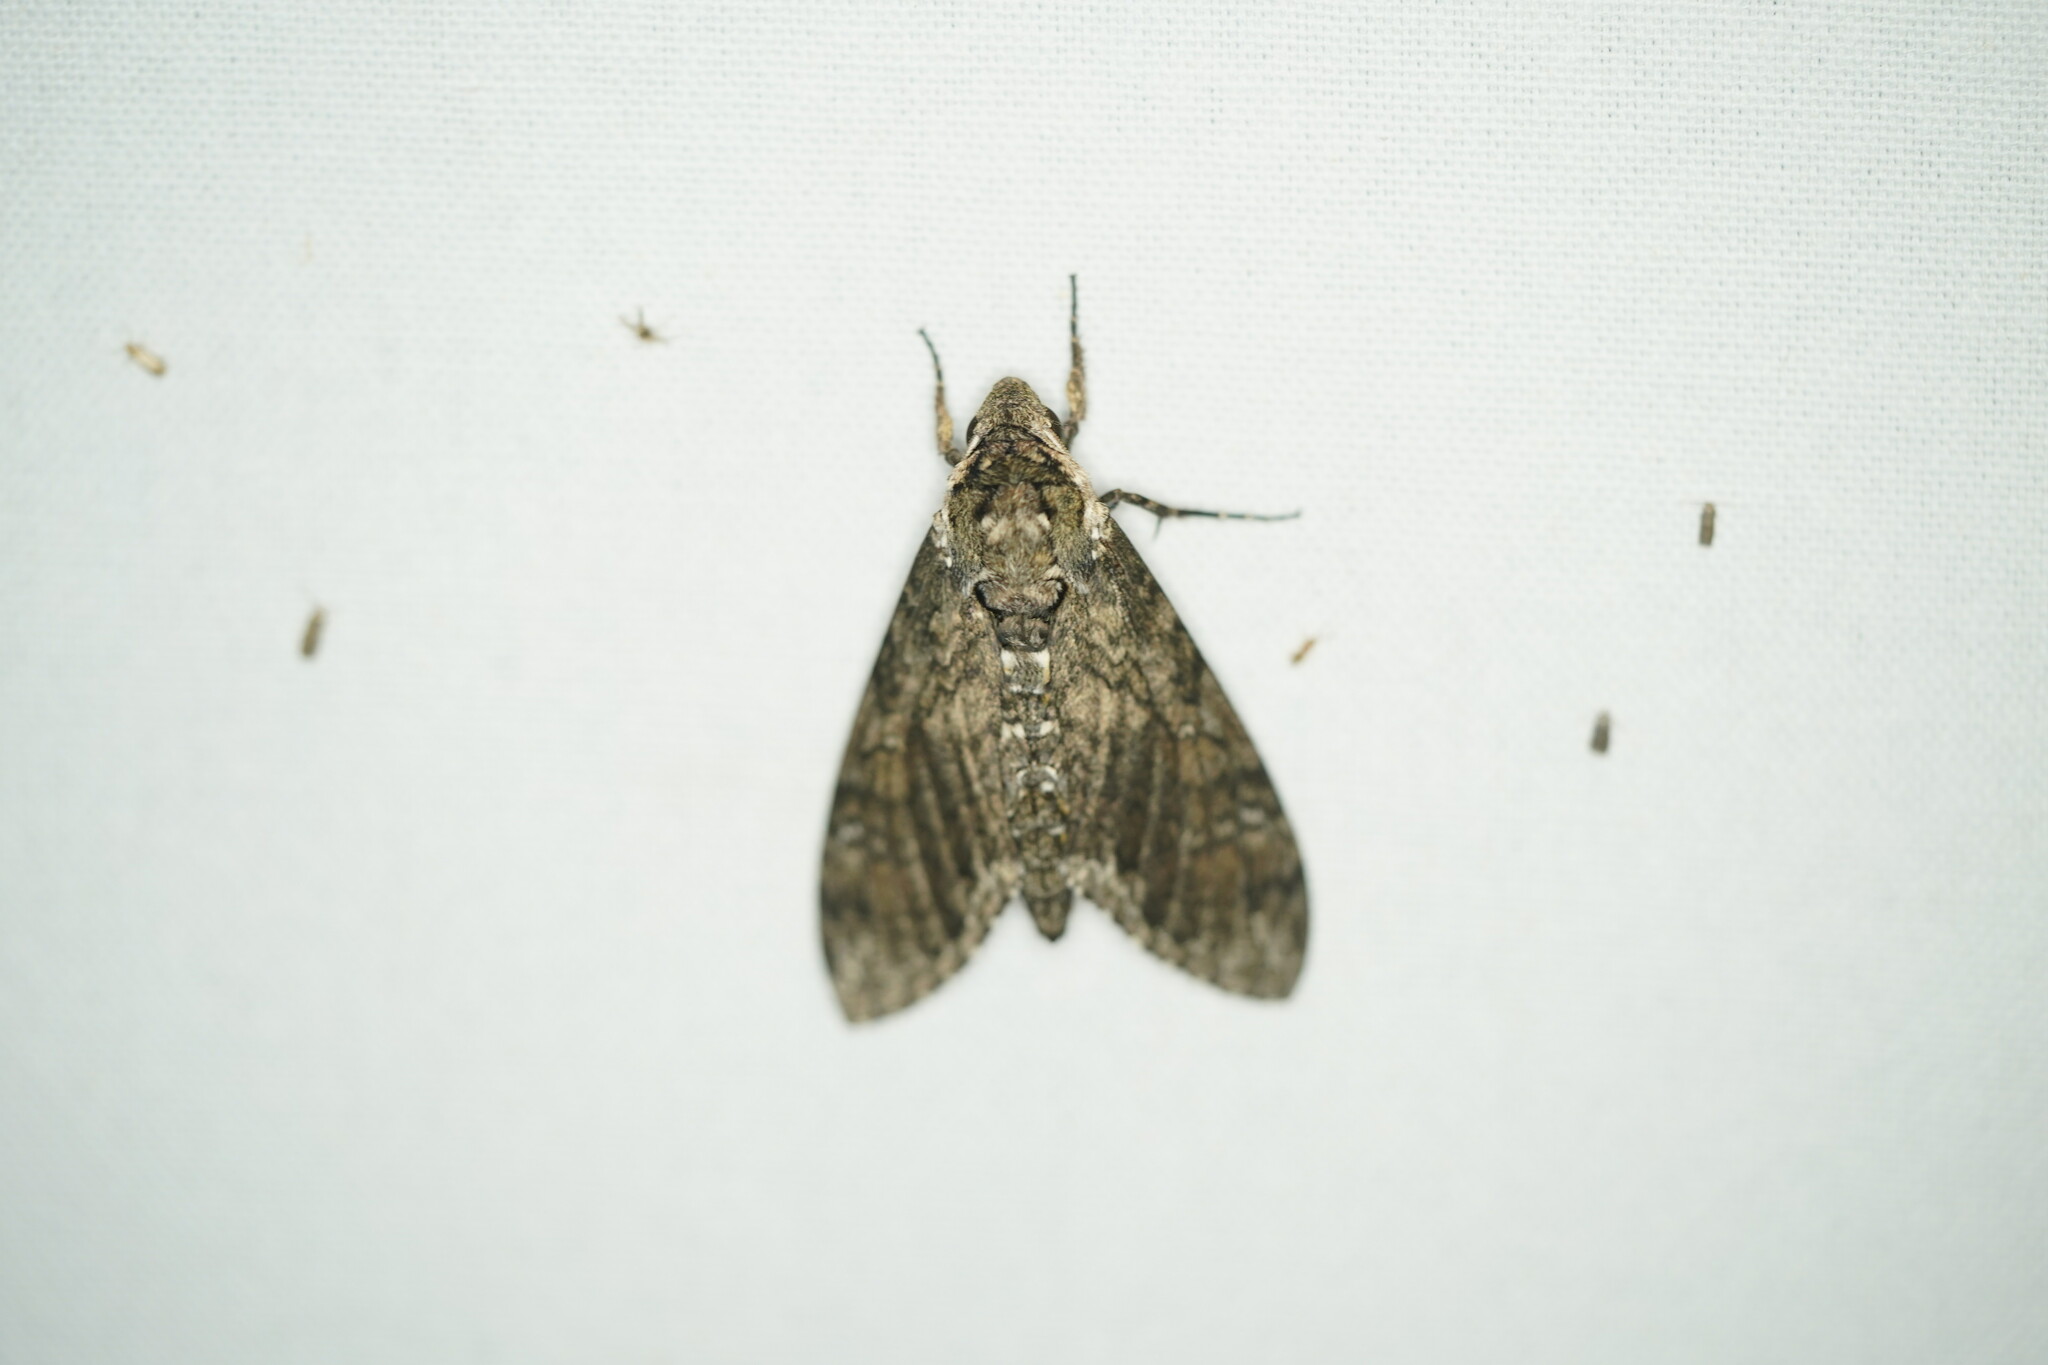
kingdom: Animalia
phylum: Arthropoda
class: Insecta
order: Lepidoptera
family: Sphingidae
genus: Manduca
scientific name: Manduca sexta
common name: Carolina sphinx
